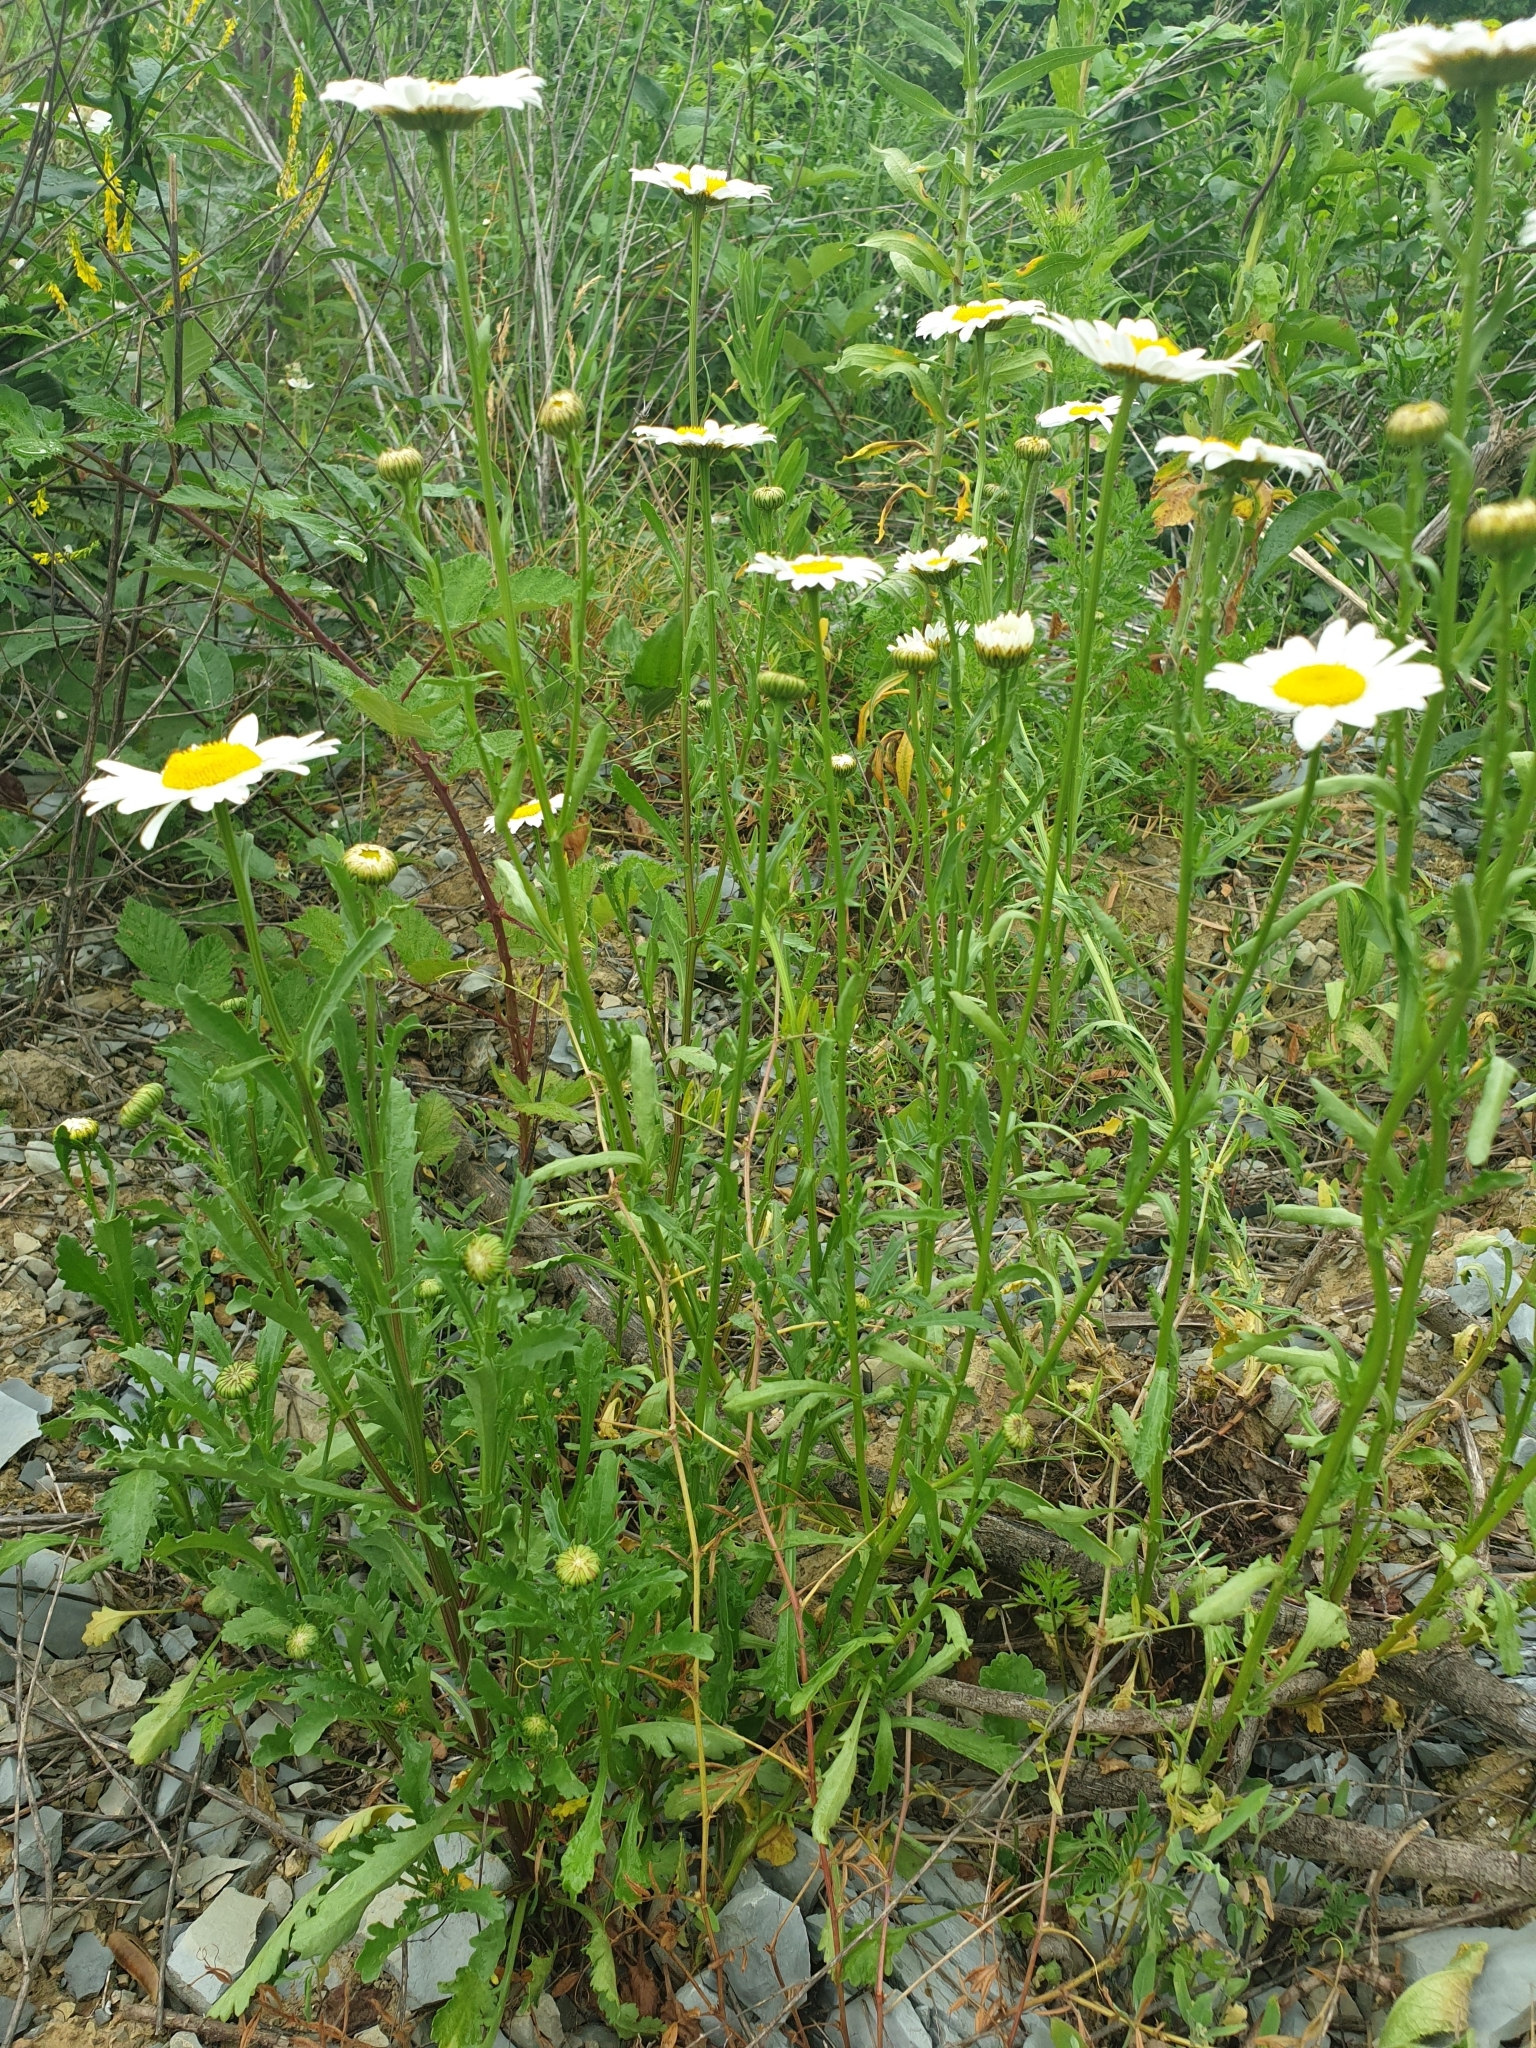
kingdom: Plantae
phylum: Tracheophyta
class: Magnoliopsida
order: Asterales
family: Asteraceae
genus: Leucanthemum
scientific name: Leucanthemum vulgare
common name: Oxeye daisy
